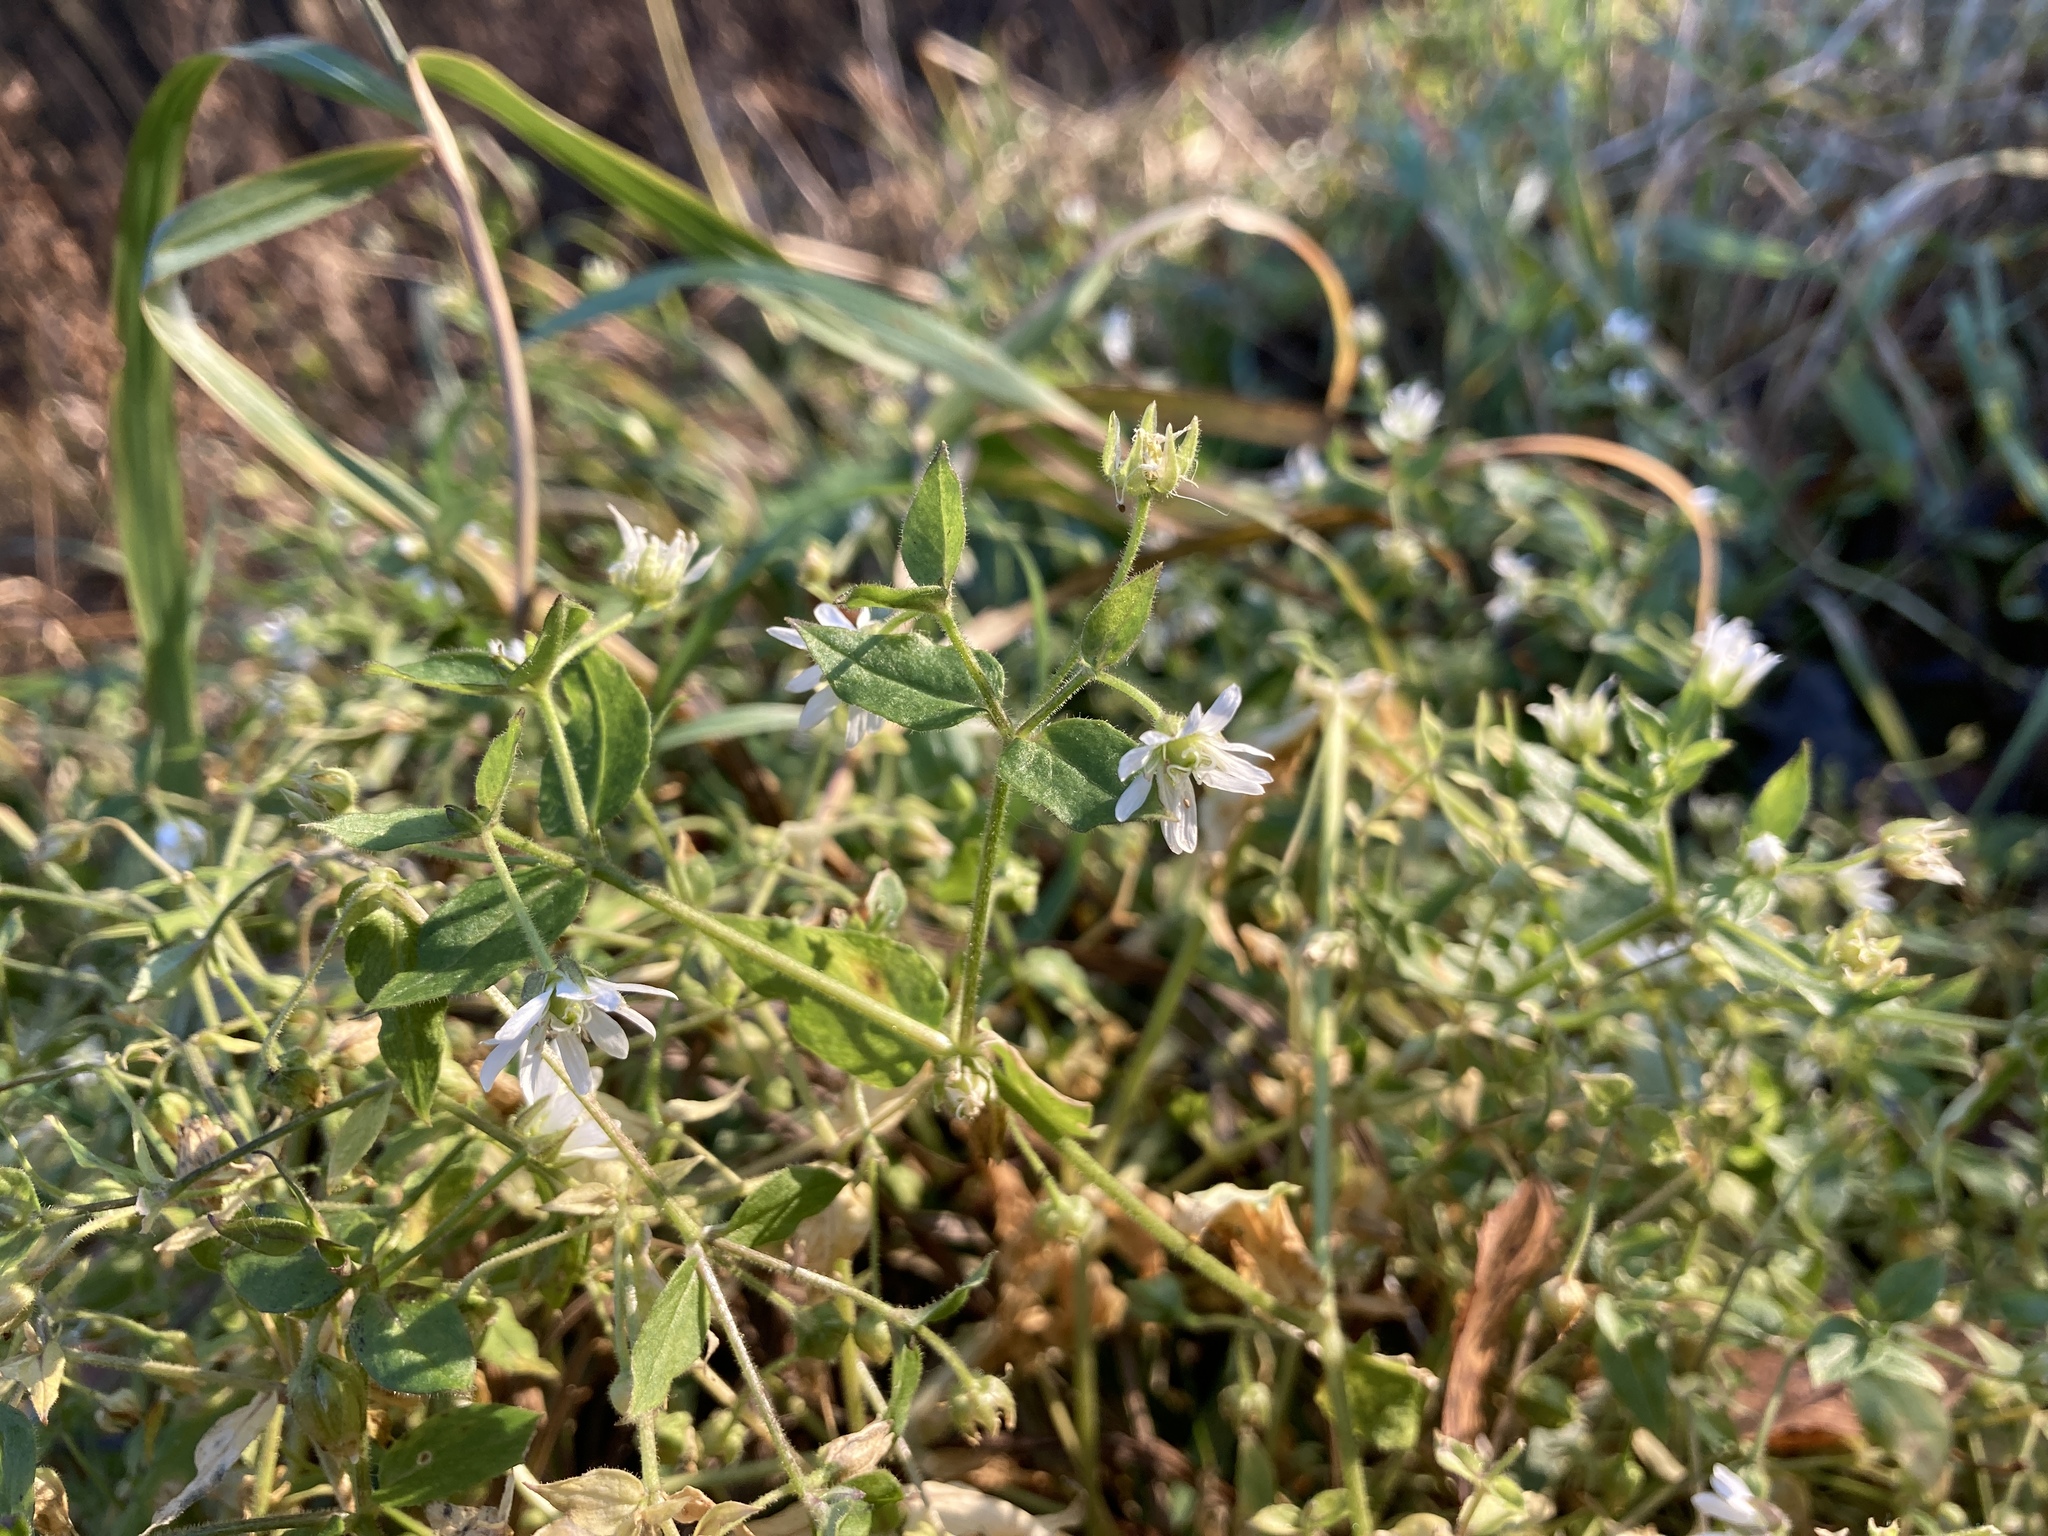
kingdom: Plantae
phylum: Tracheophyta
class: Magnoliopsida
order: Caryophyllales
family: Caryophyllaceae
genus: Stellaria
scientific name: Stellaria aquatica
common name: Water chickweed
